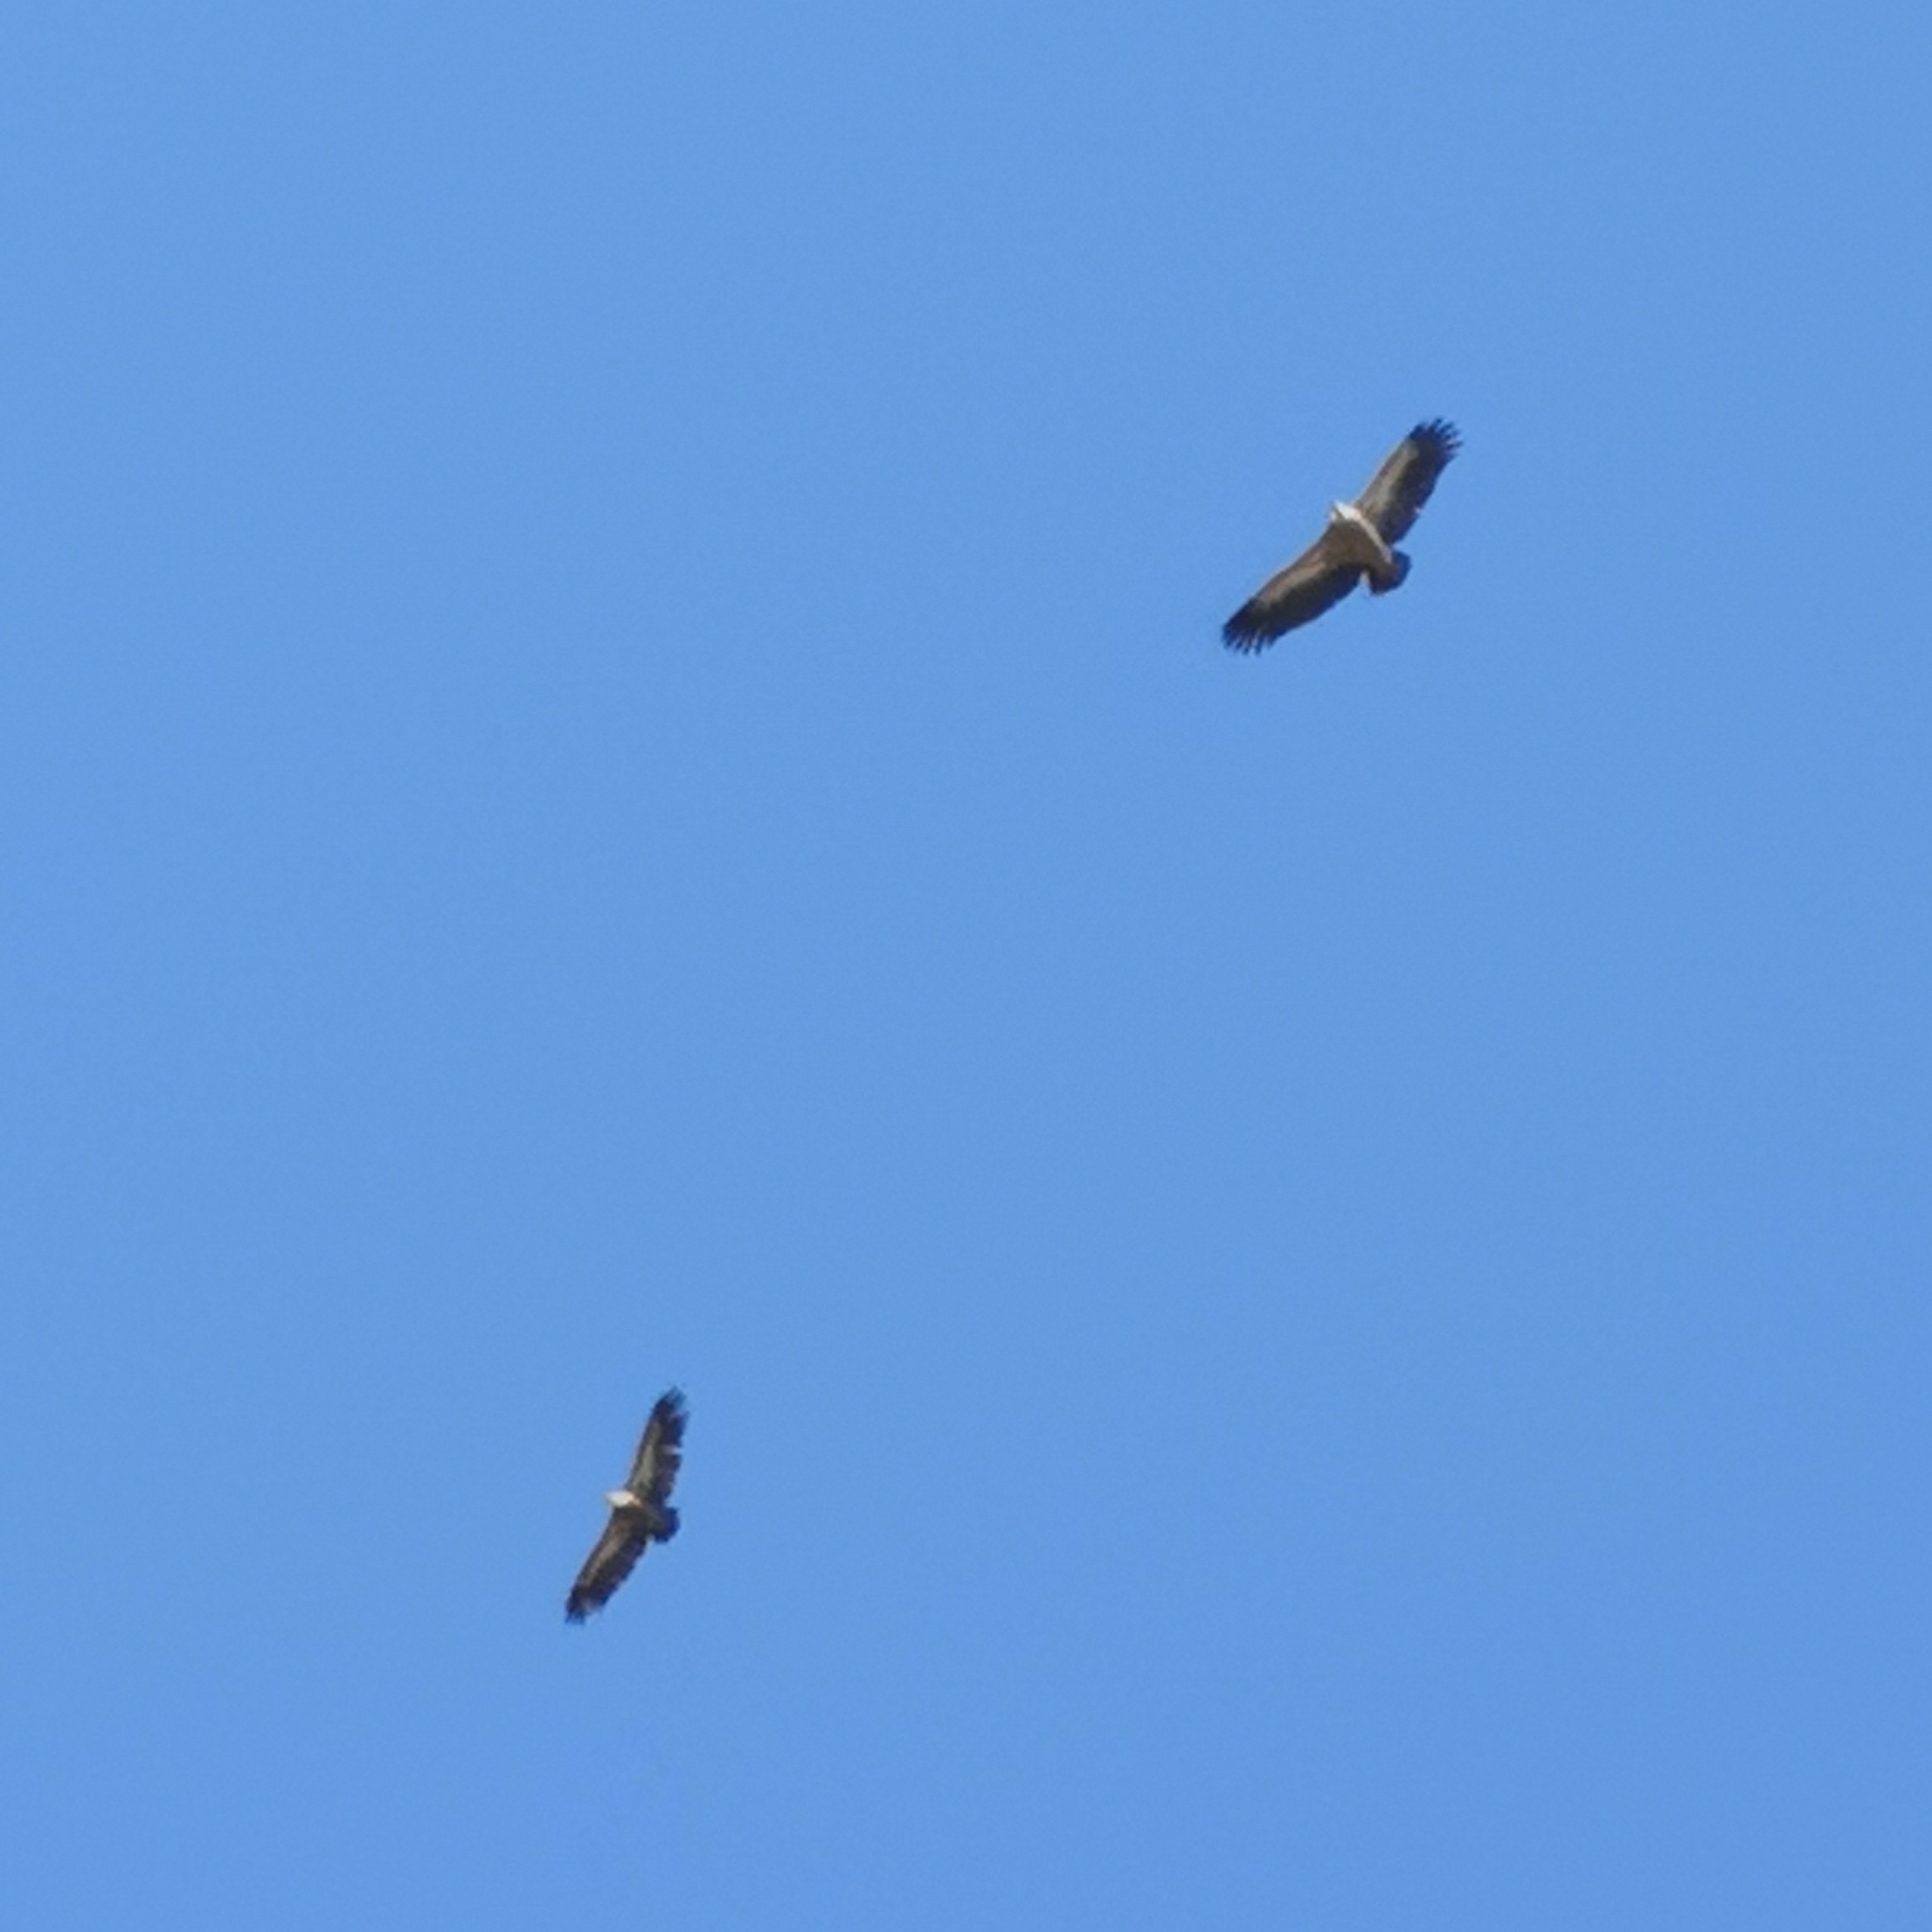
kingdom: Animalia
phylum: Chordata
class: Aves
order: Accipitriformes
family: Accipitridae
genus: Gyps
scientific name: Gyps fulvus
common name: Griffon vulture
